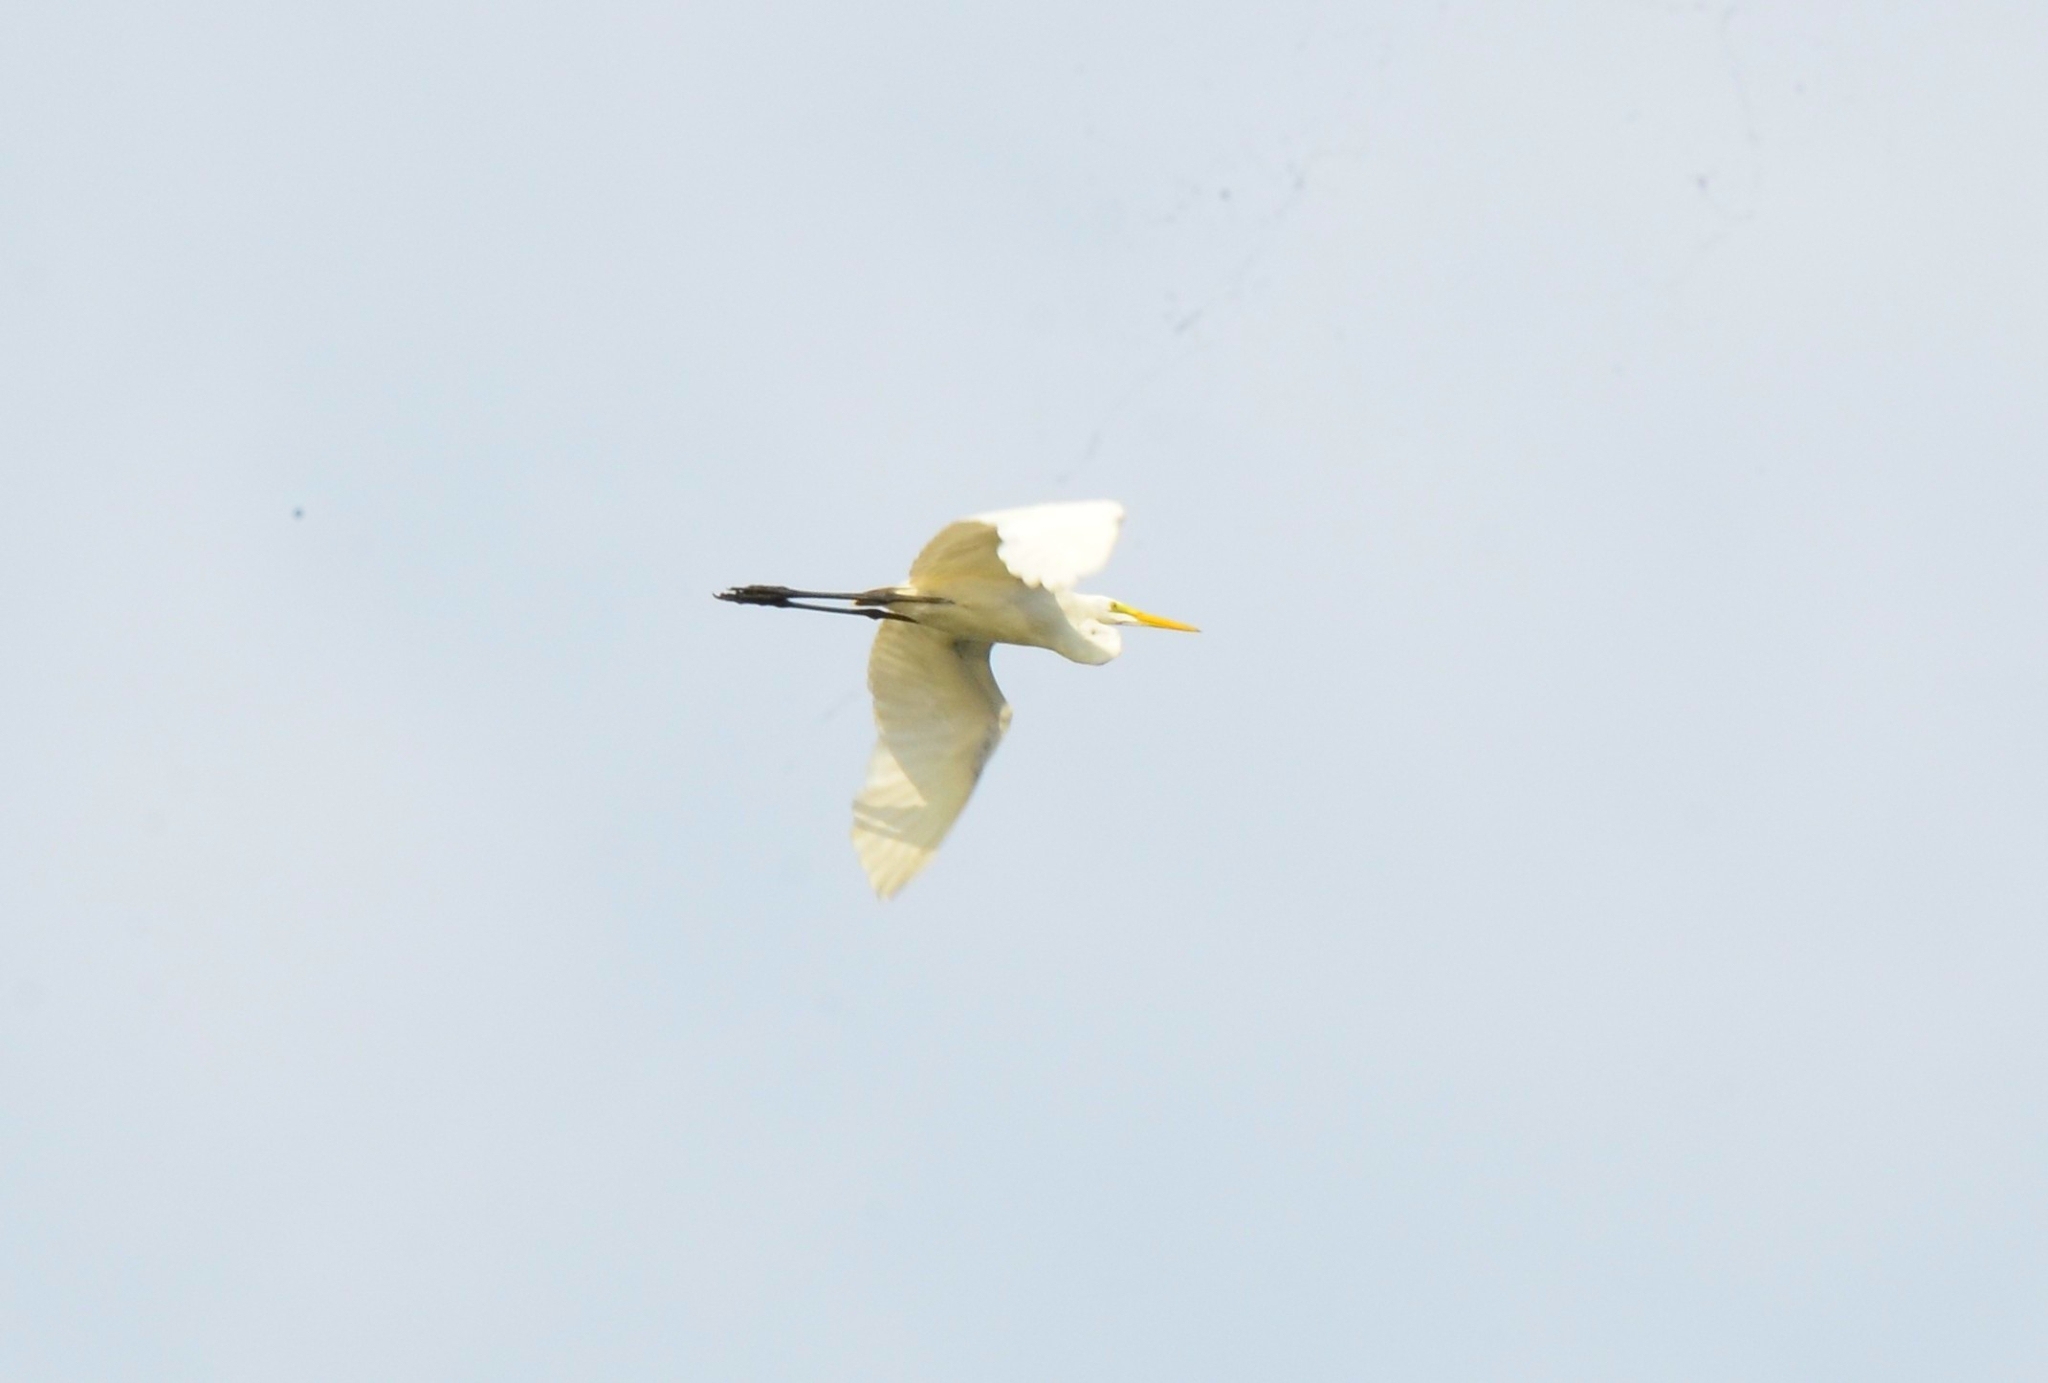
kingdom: Animalia
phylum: Chordata
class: Aves
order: Pelecaniformes
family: Ardeidae
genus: Ardea
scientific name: Ardea alba
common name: Great egret
